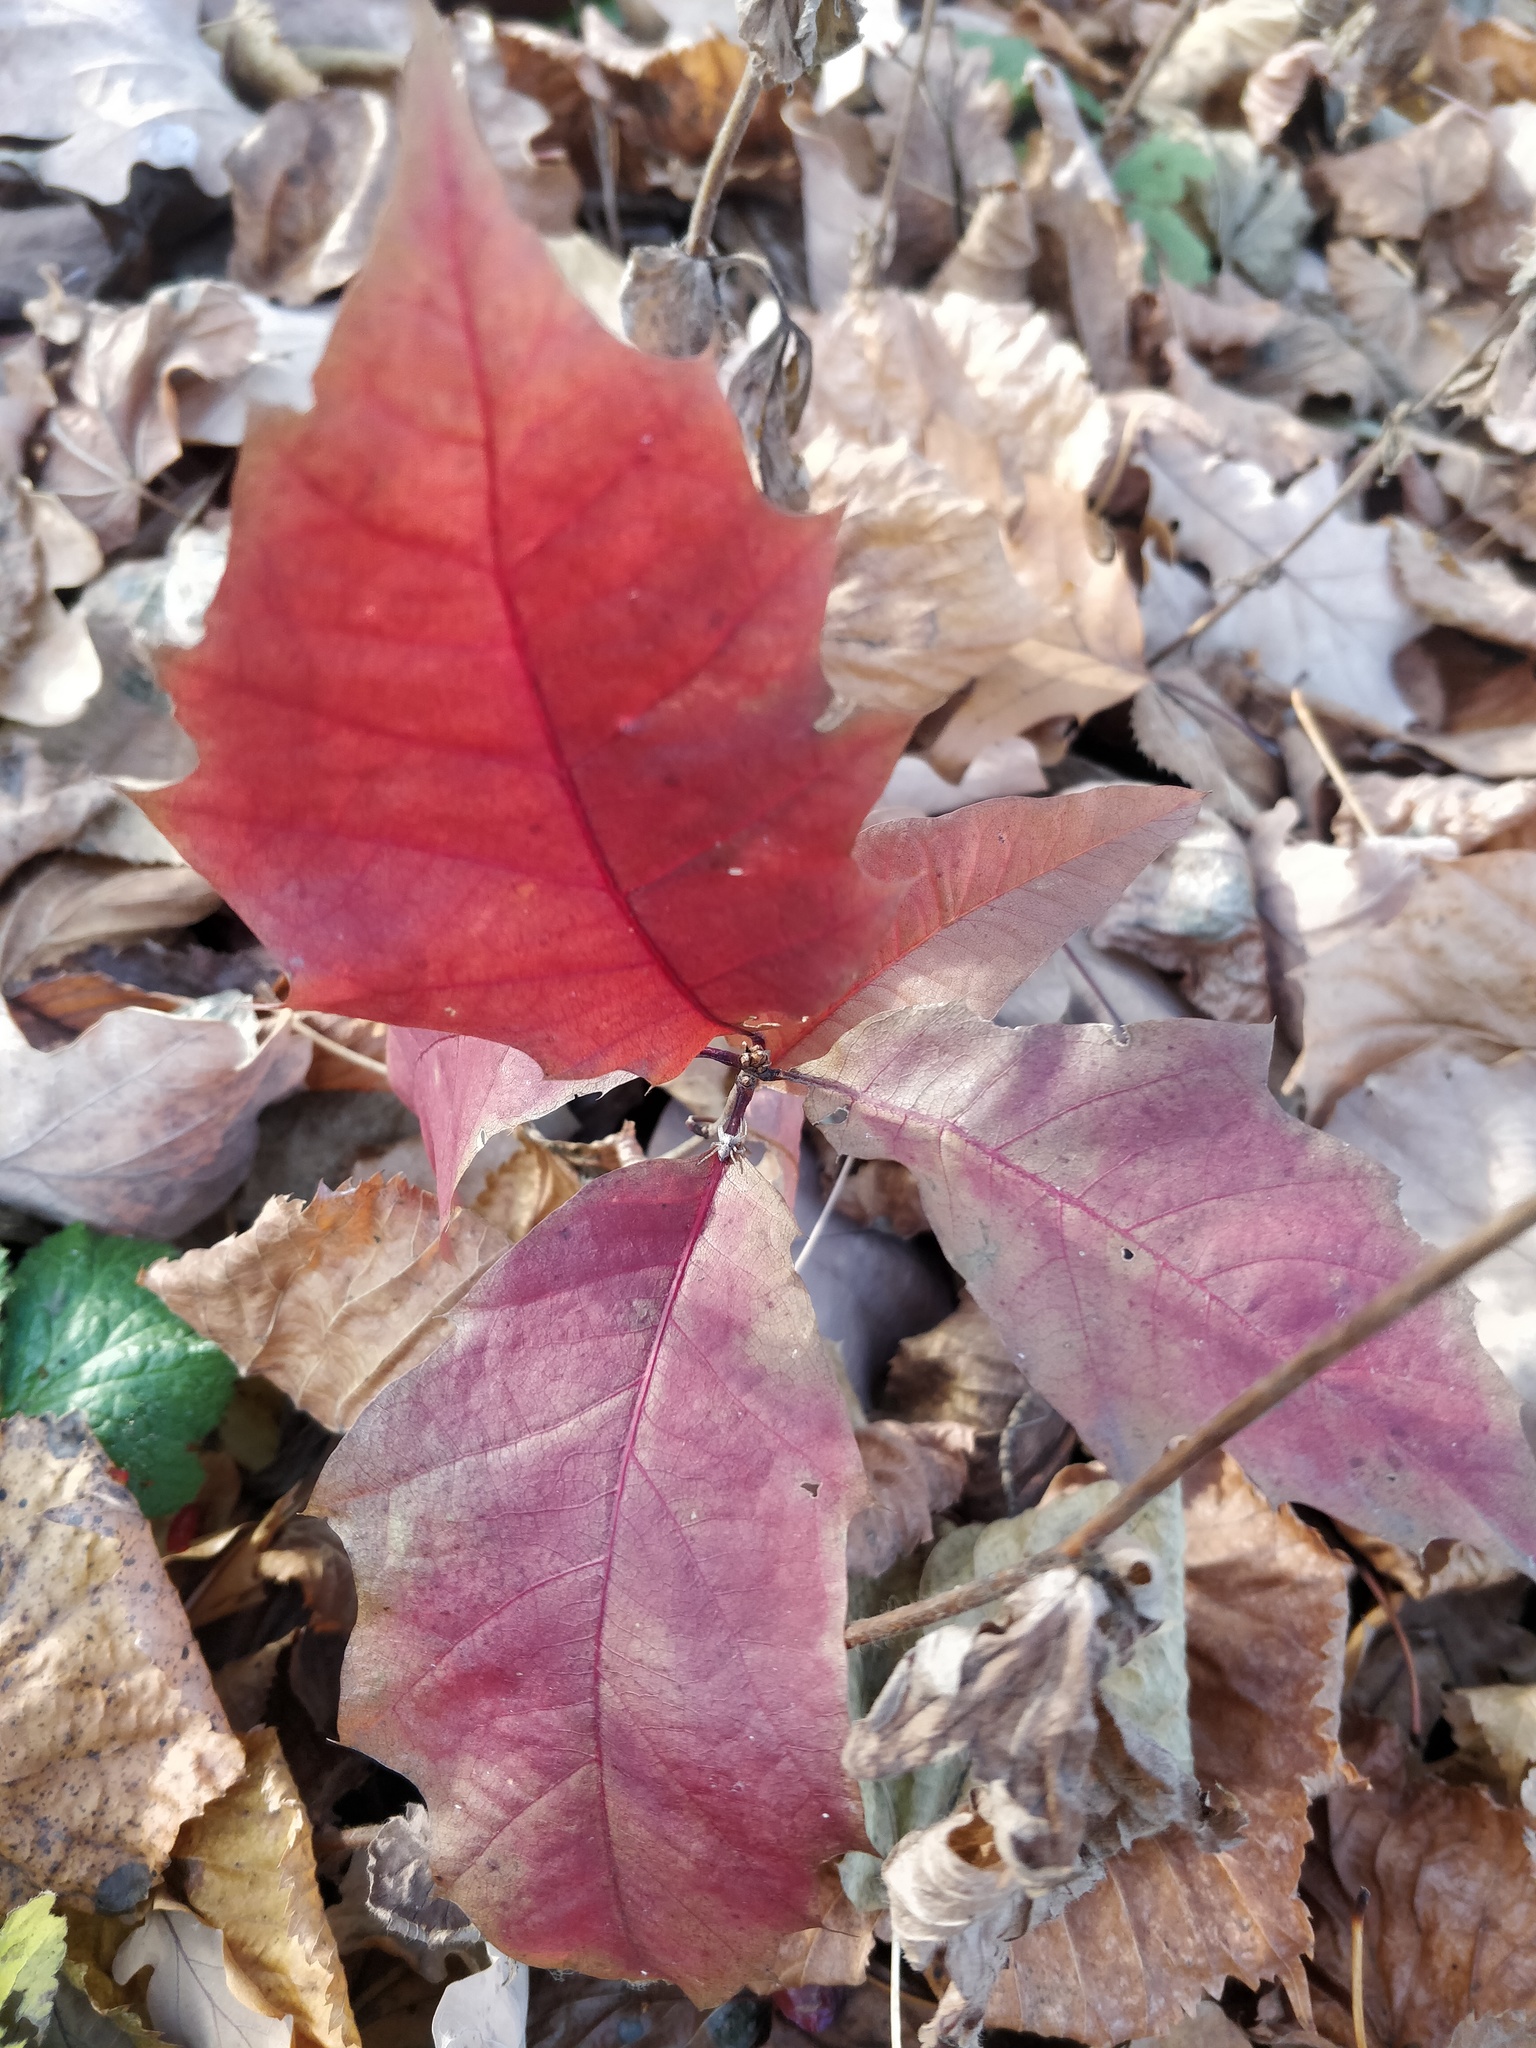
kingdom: Plantae
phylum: Tracheophyta
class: Magnoliopsida
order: Fagales
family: Fagaceae
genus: Quercus
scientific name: Quercus rubra
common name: Red oak
